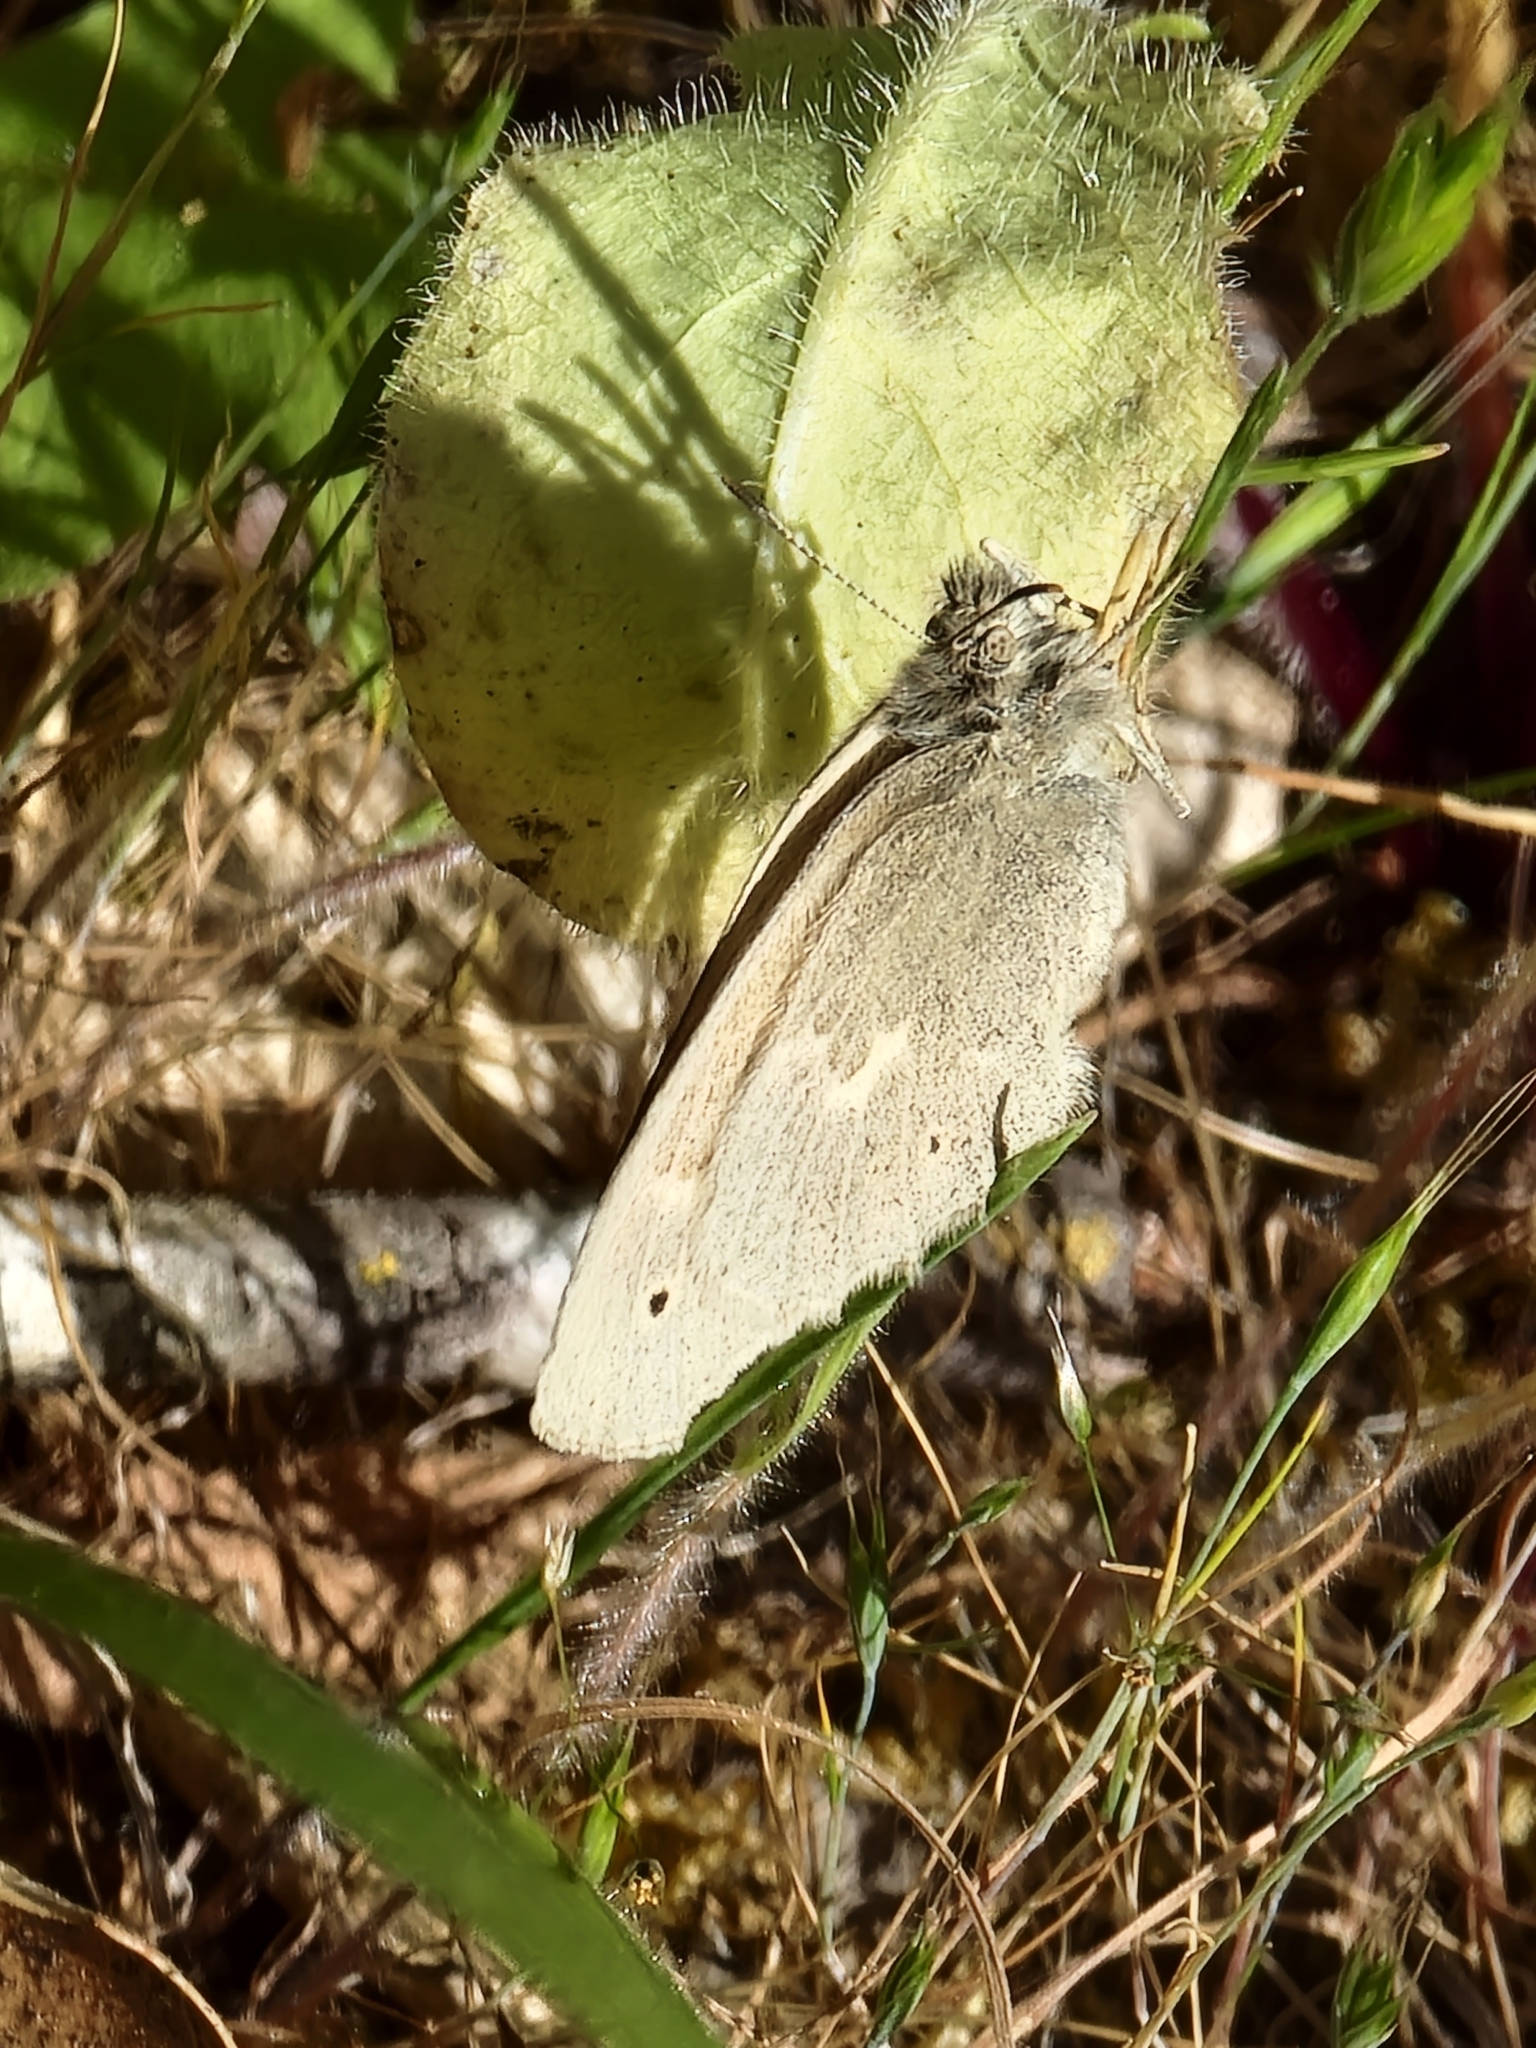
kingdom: Animalia
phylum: Arthropoda
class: Insecta
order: Lepidoptera
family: Nymphalidae
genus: Coenonympha
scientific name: Coenonympha california
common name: Common ringlet
